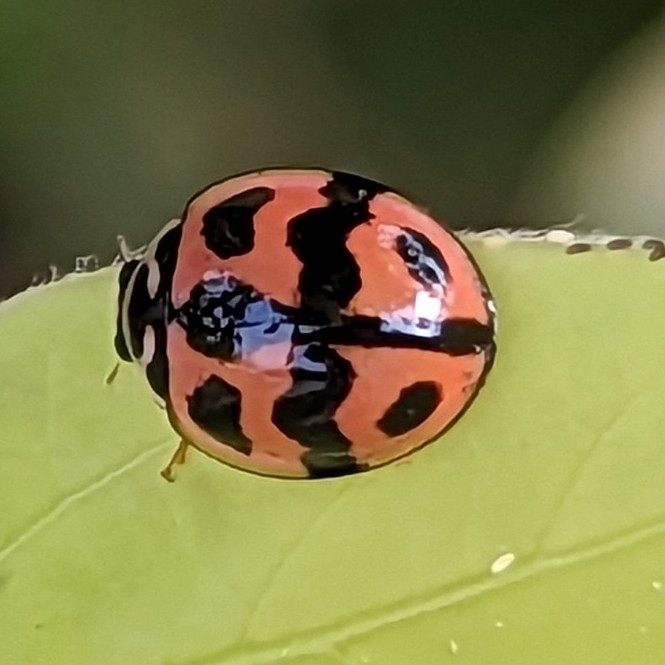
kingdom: Animalia
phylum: Arthropoda
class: Insecta
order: Coleoptera
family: Coccinellidae
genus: Cheilomenes
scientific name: Cheilomenes sexmaculata
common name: Ladybird beetle
